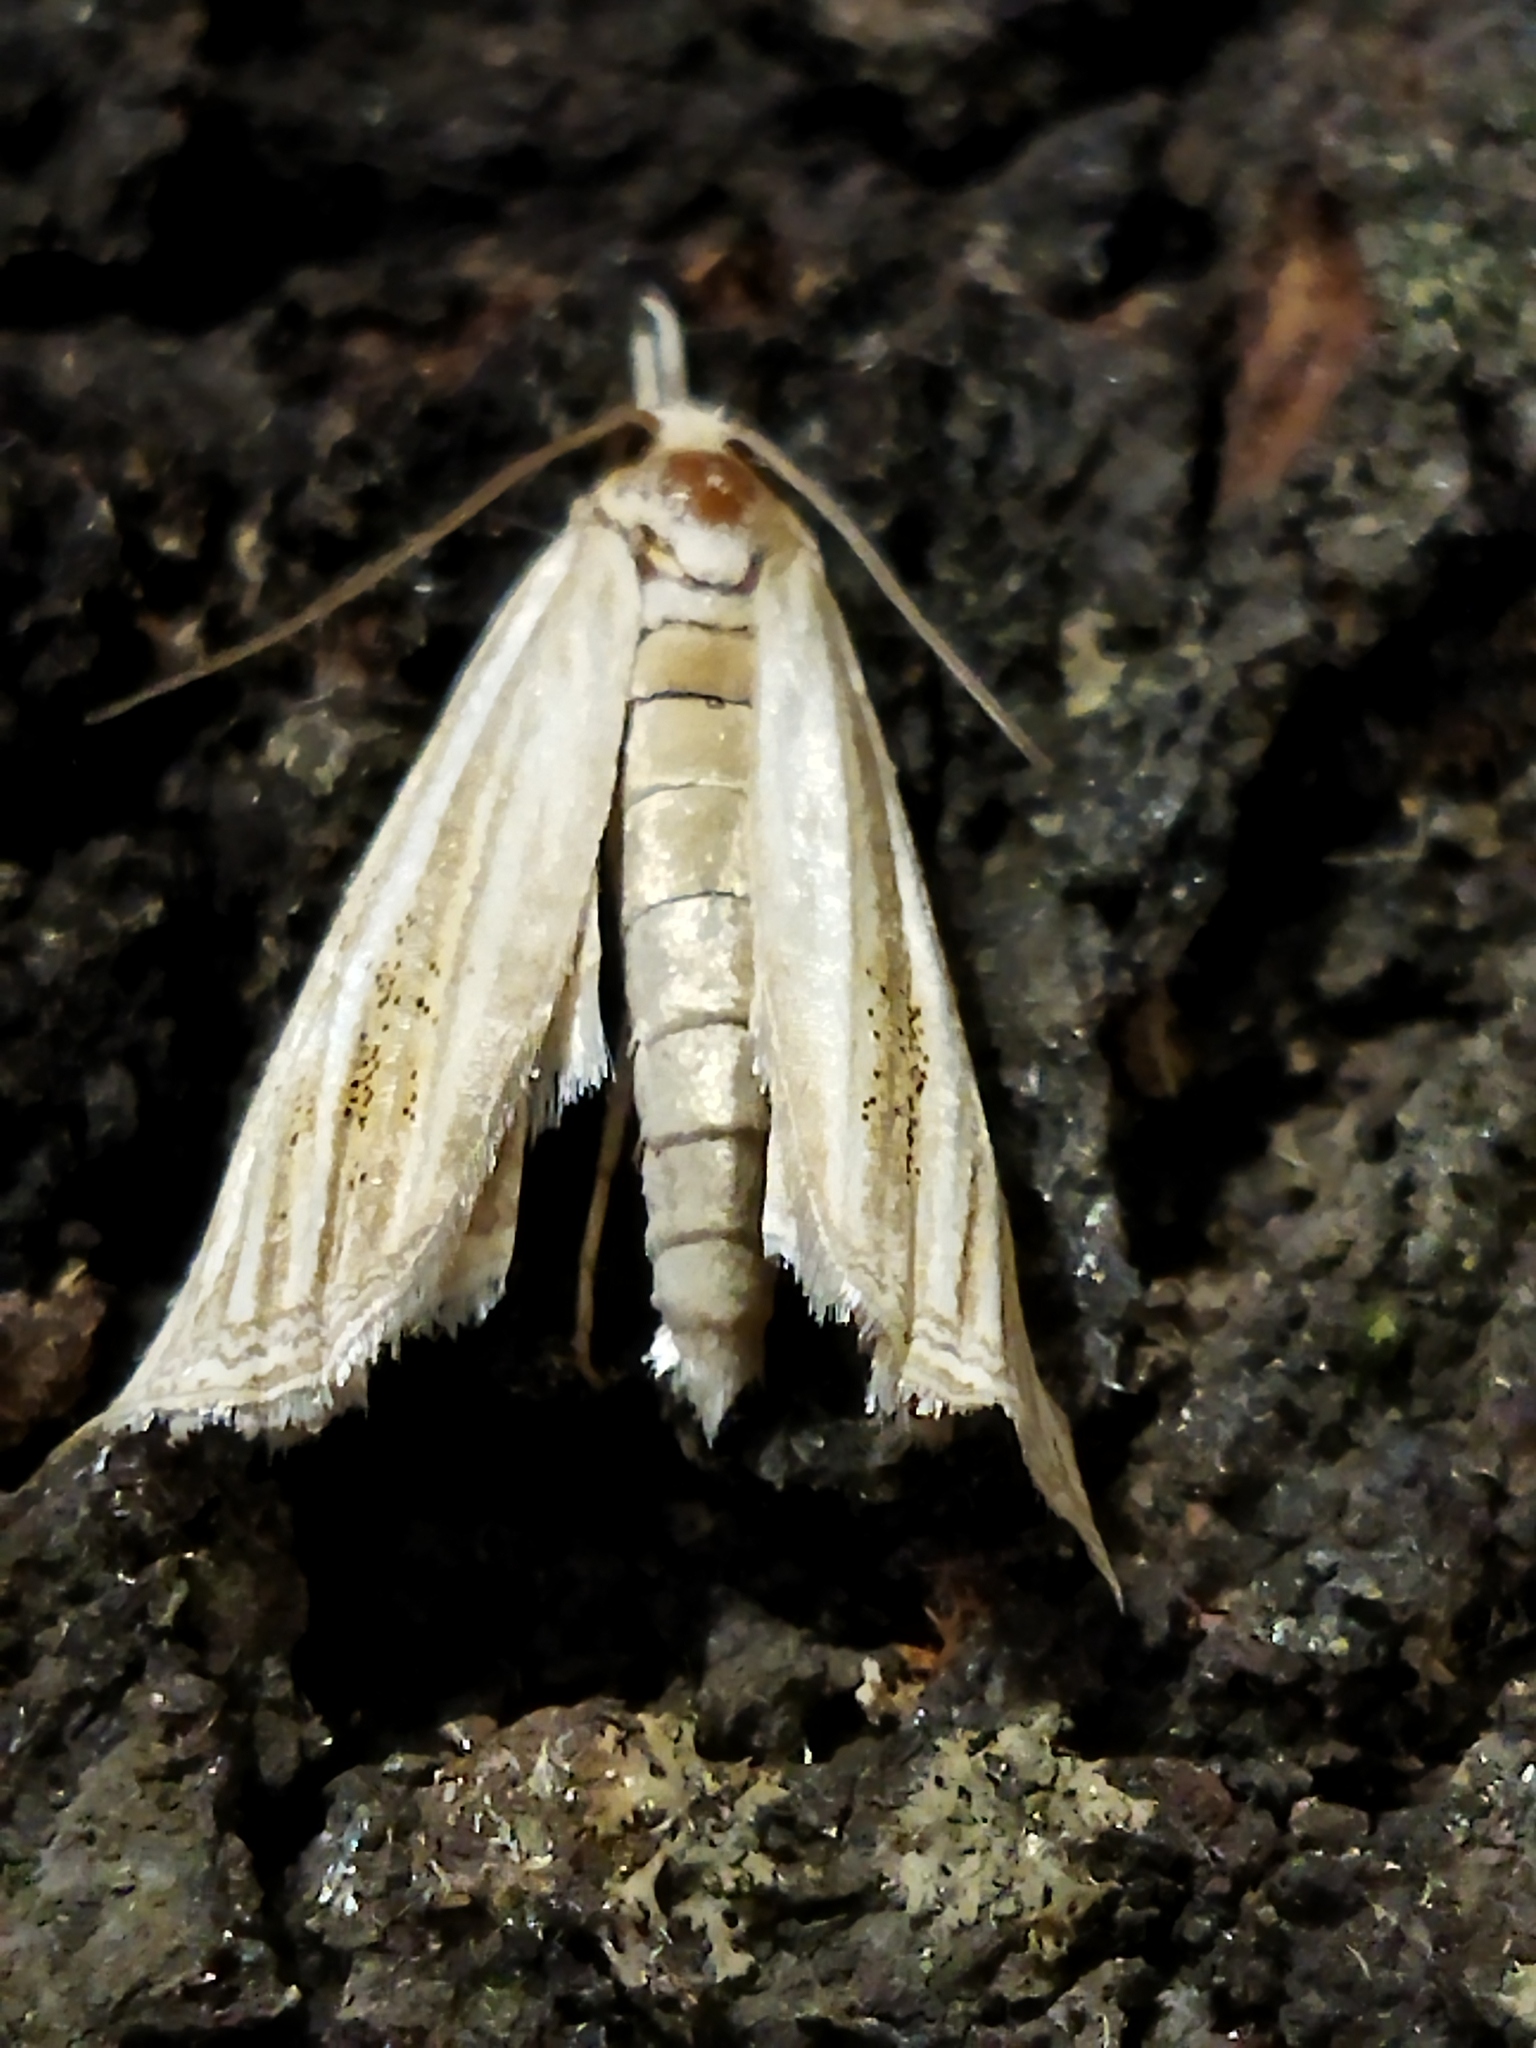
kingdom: Animalia
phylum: Arthropoda
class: Insecta
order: Lepidoptera
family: Crambidae
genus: Ancylolomia
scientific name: Ancylolomia
